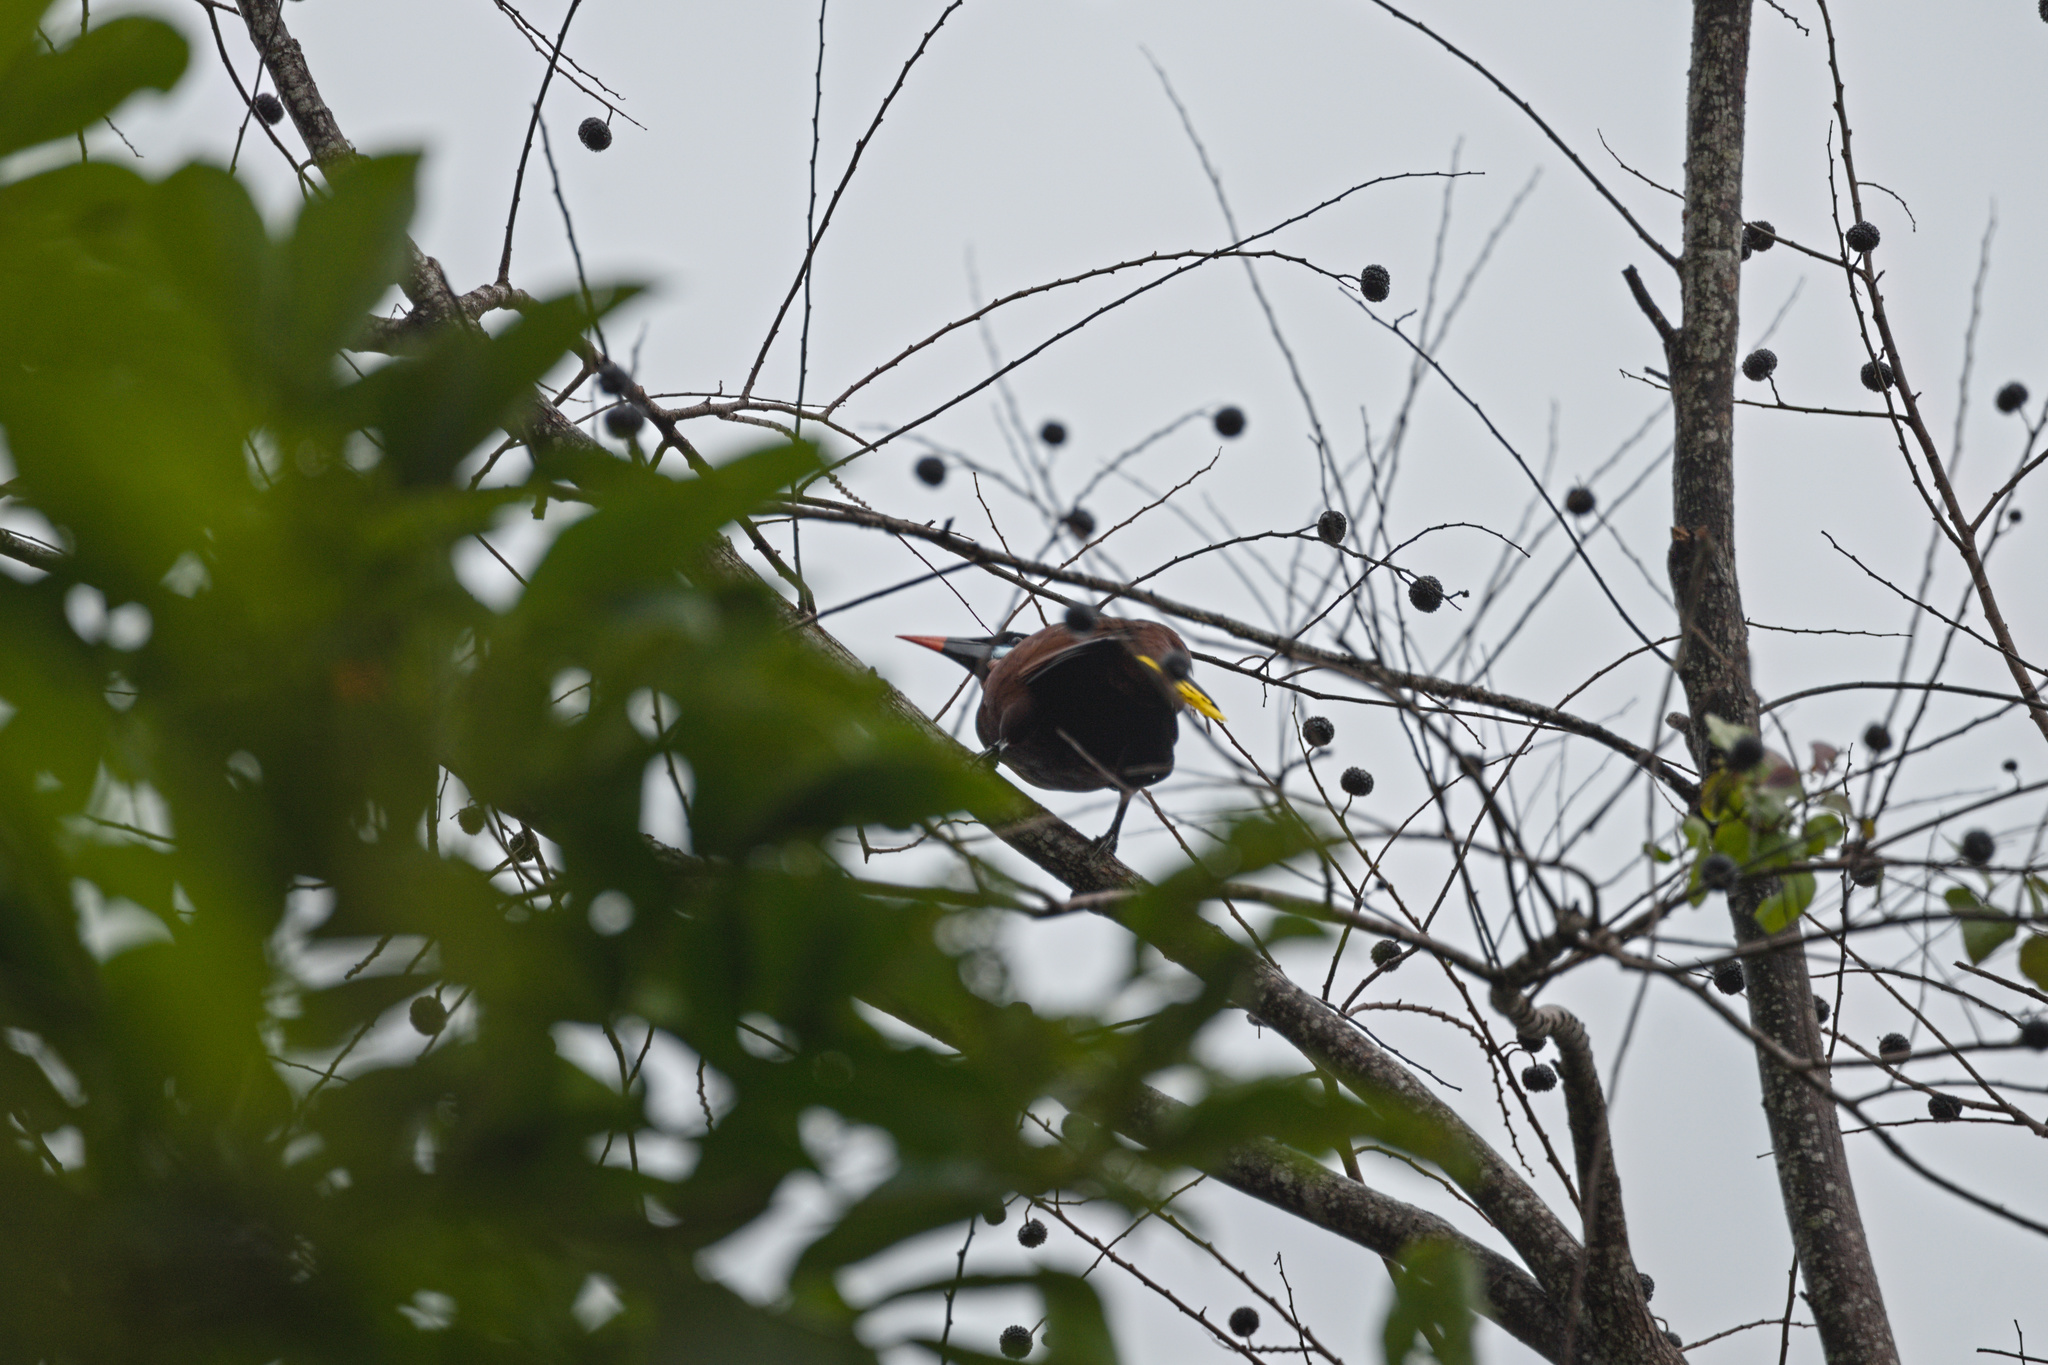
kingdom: Animalia
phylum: Chordata
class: Aves
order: Passeriformes
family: Icteridae
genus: Psarocolius
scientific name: Psarocolius montezuma
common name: Montezuma oropendola
